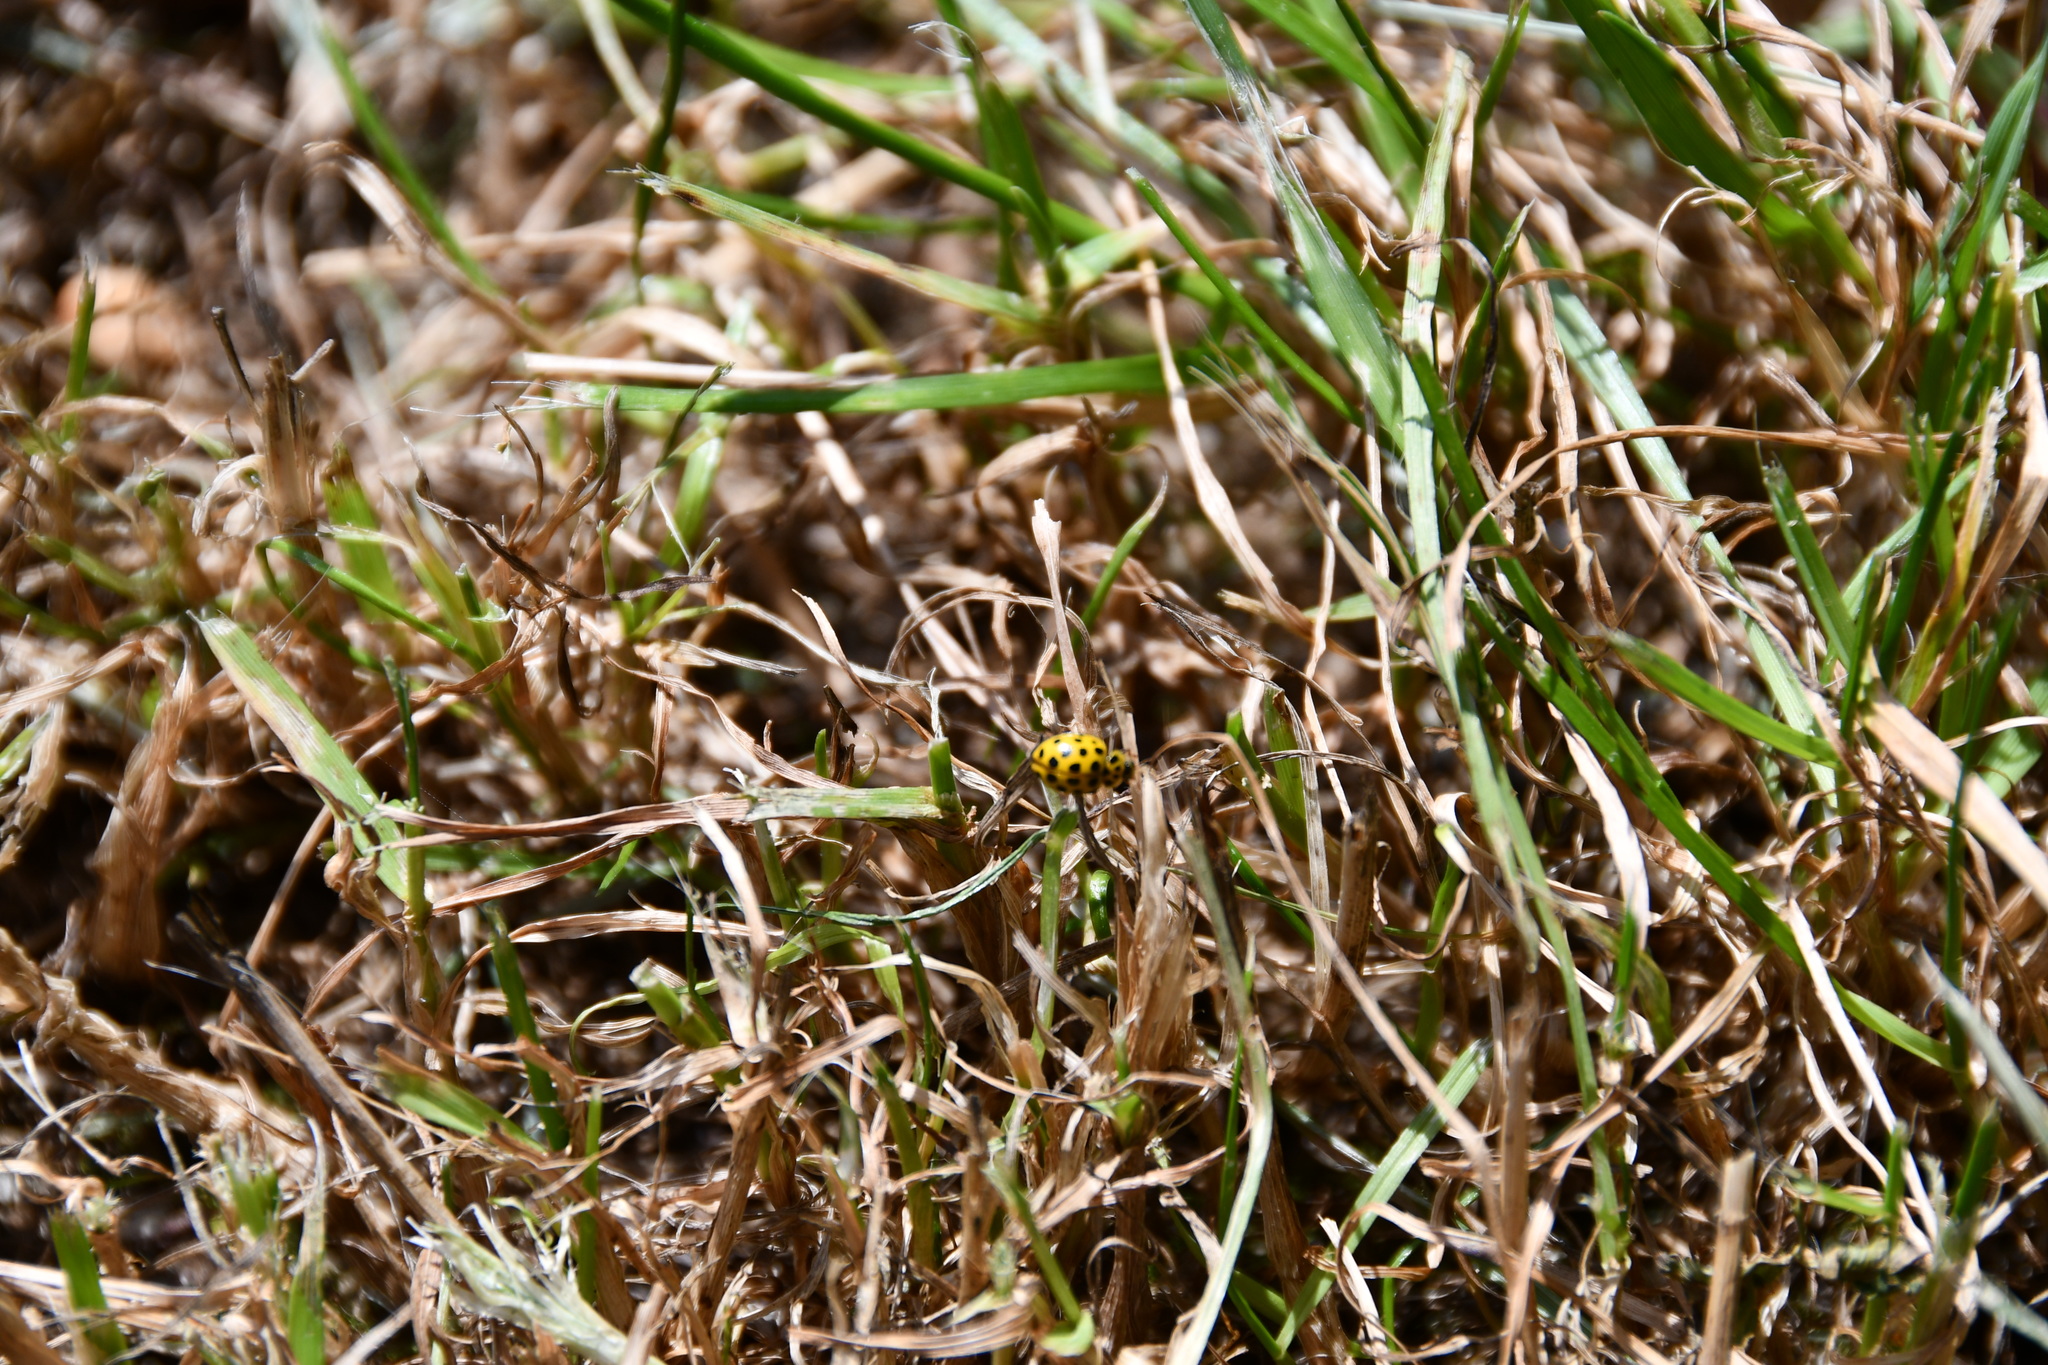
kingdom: Animalia
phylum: Arthropoda
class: Insecta
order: Coleoptera
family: Coccinellidae
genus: Psyllobora
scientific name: Psyllobora vigintiduopunctata
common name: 22-spot ladybird
